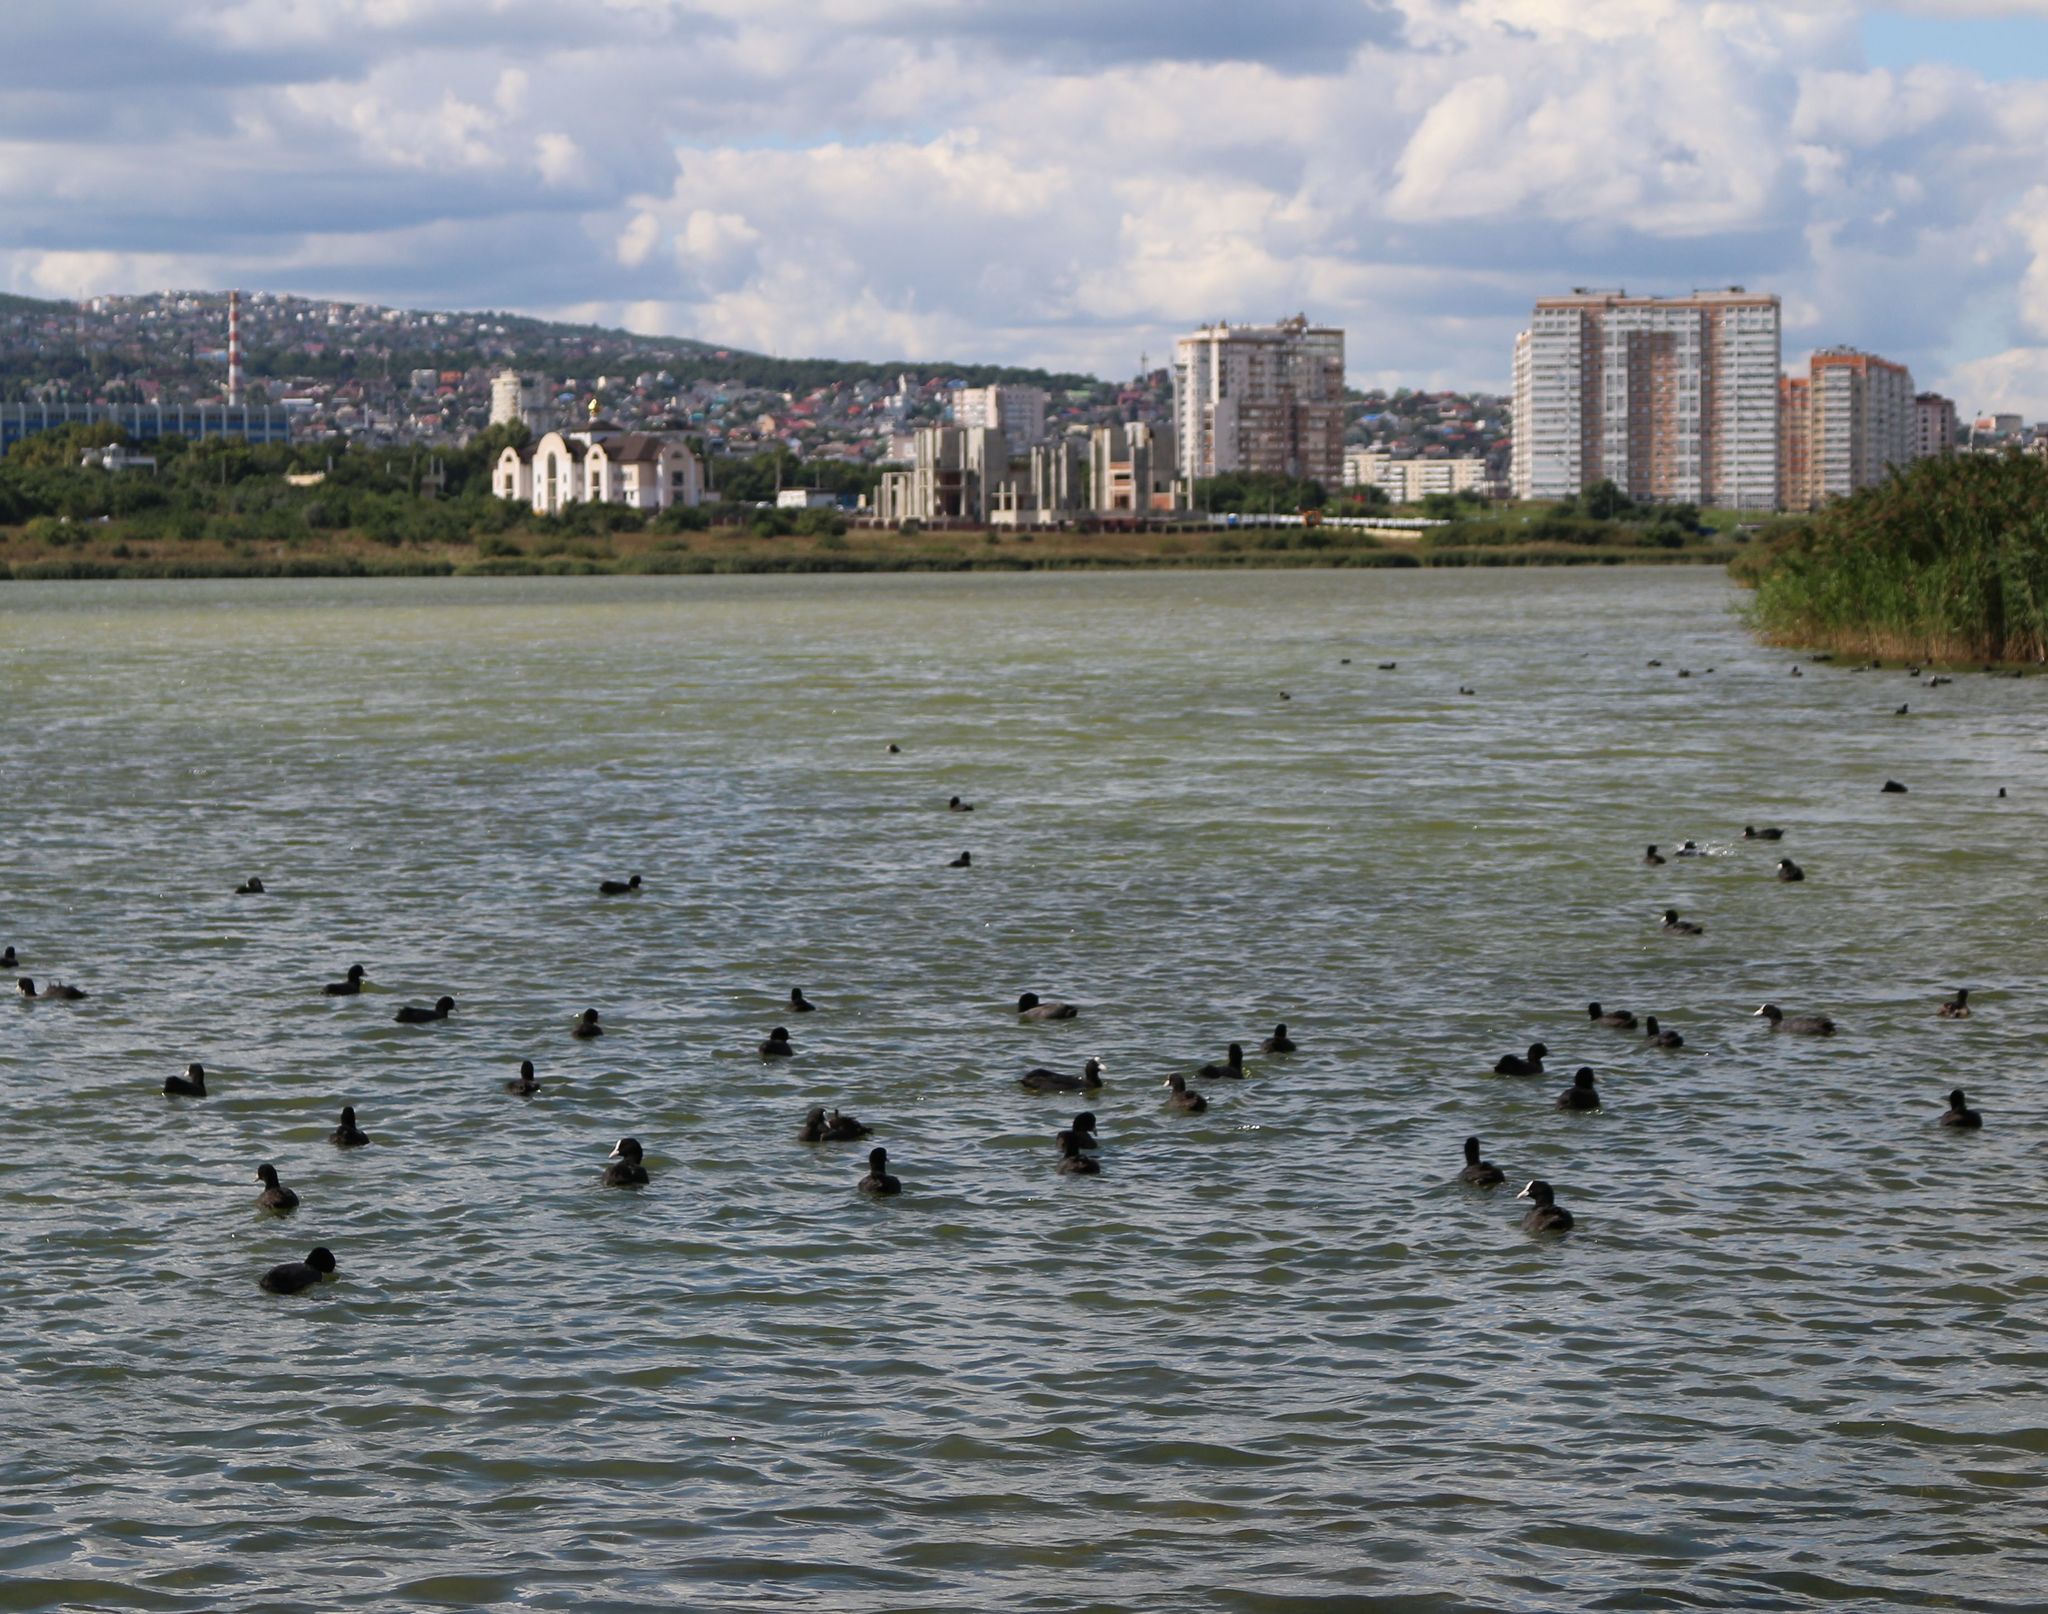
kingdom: Animalia
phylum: Chordata
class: Aves
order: Gruiformes
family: Rallidae
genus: Fulica
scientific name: Fulica atra
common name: Eurasian coot
